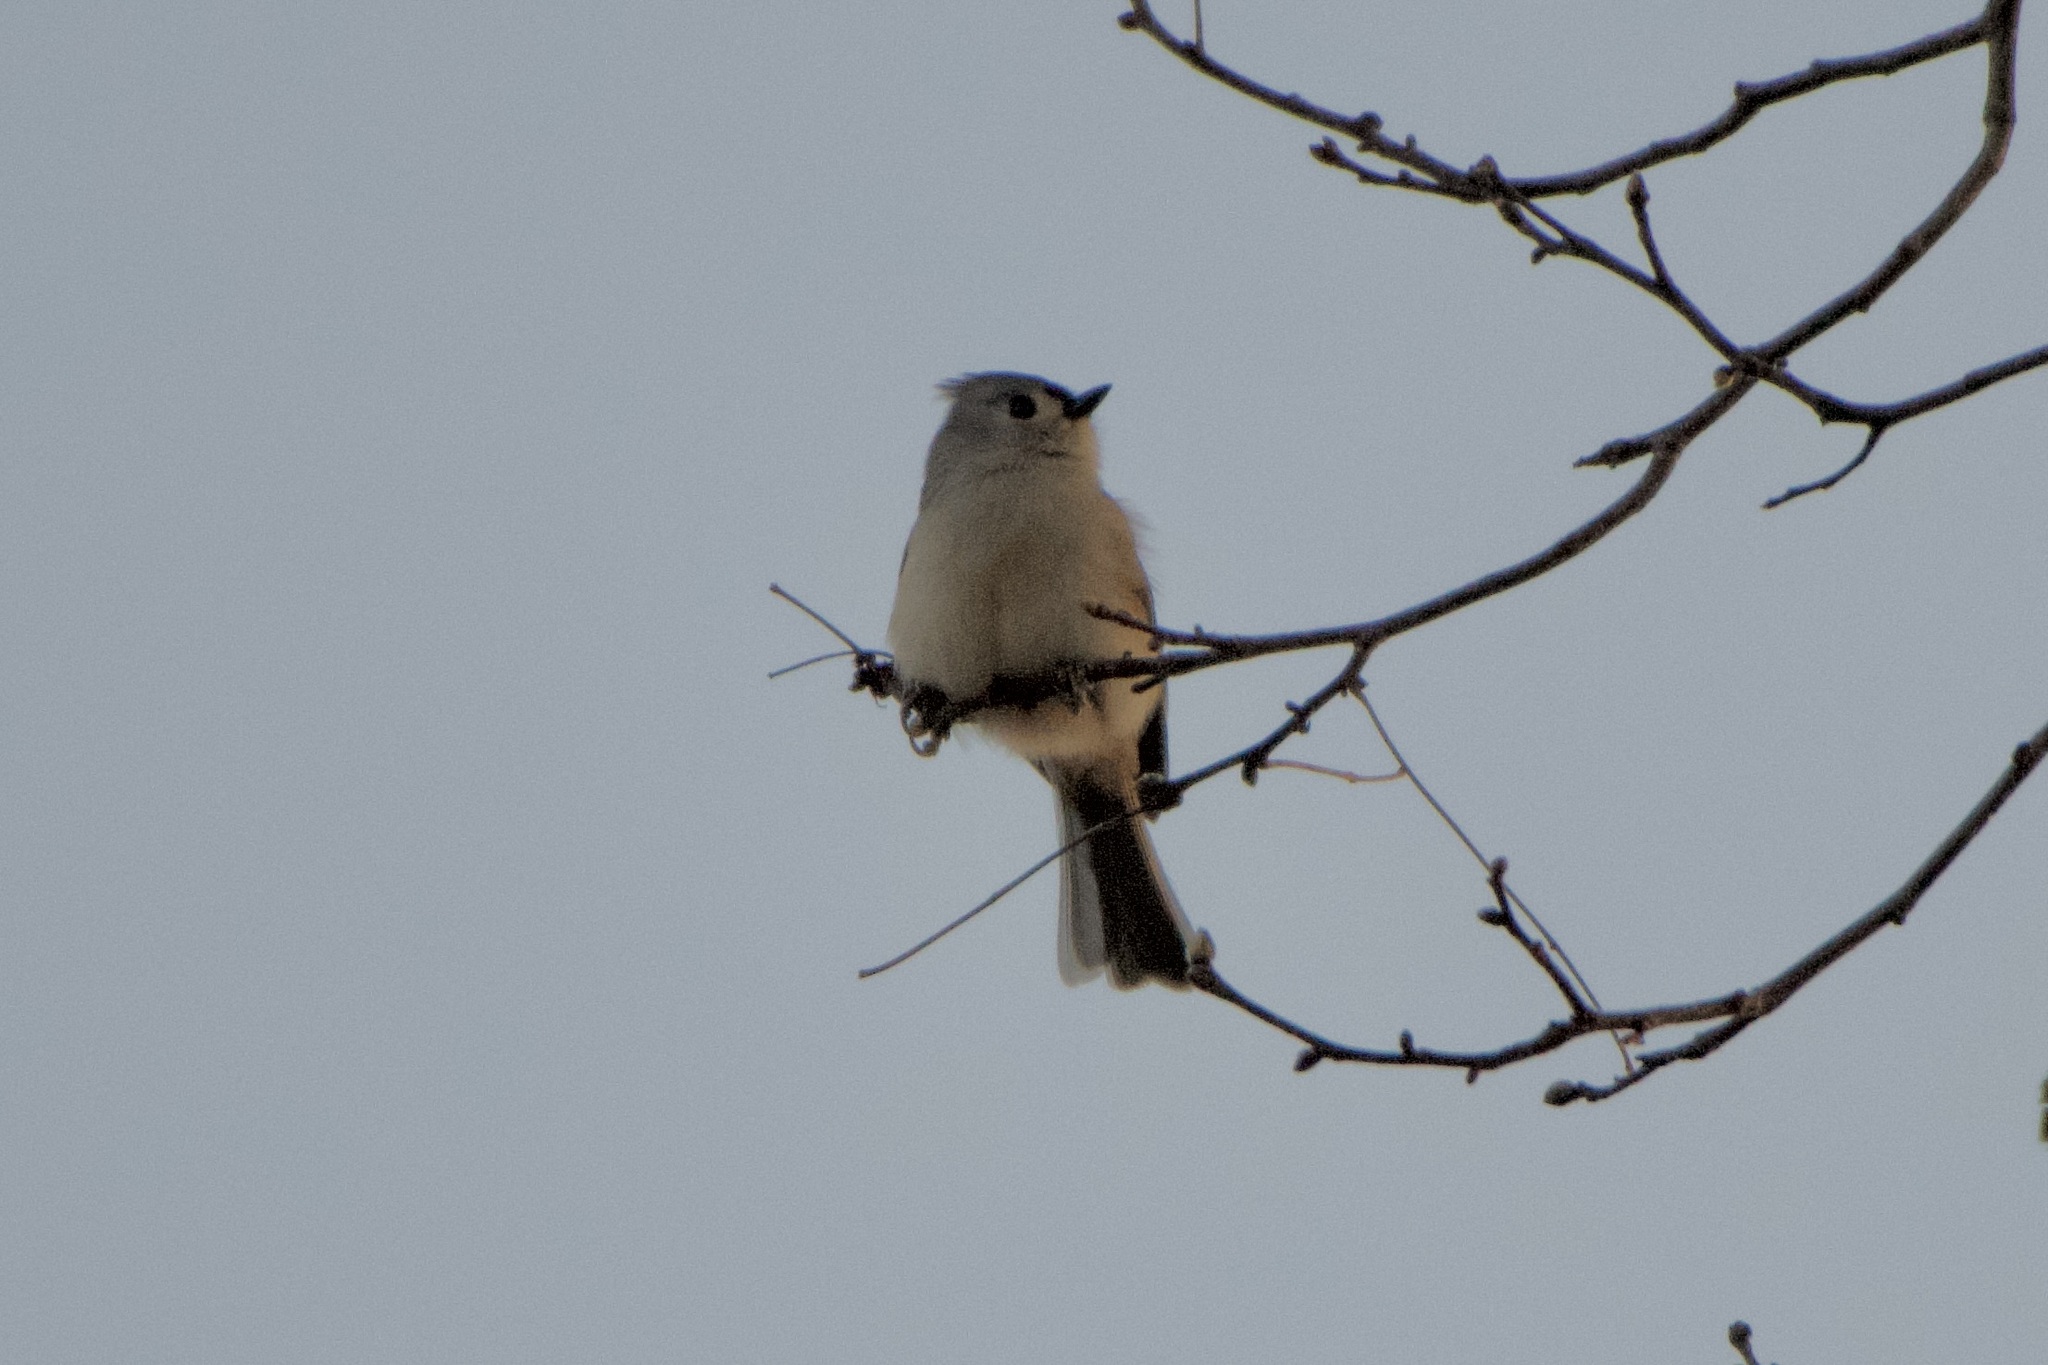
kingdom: Animalia
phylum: Chordata
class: Aves
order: Passeriformes
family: Paridae
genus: Baeolophus
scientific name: Baeolophus bicolor
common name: Tufted titmouse
